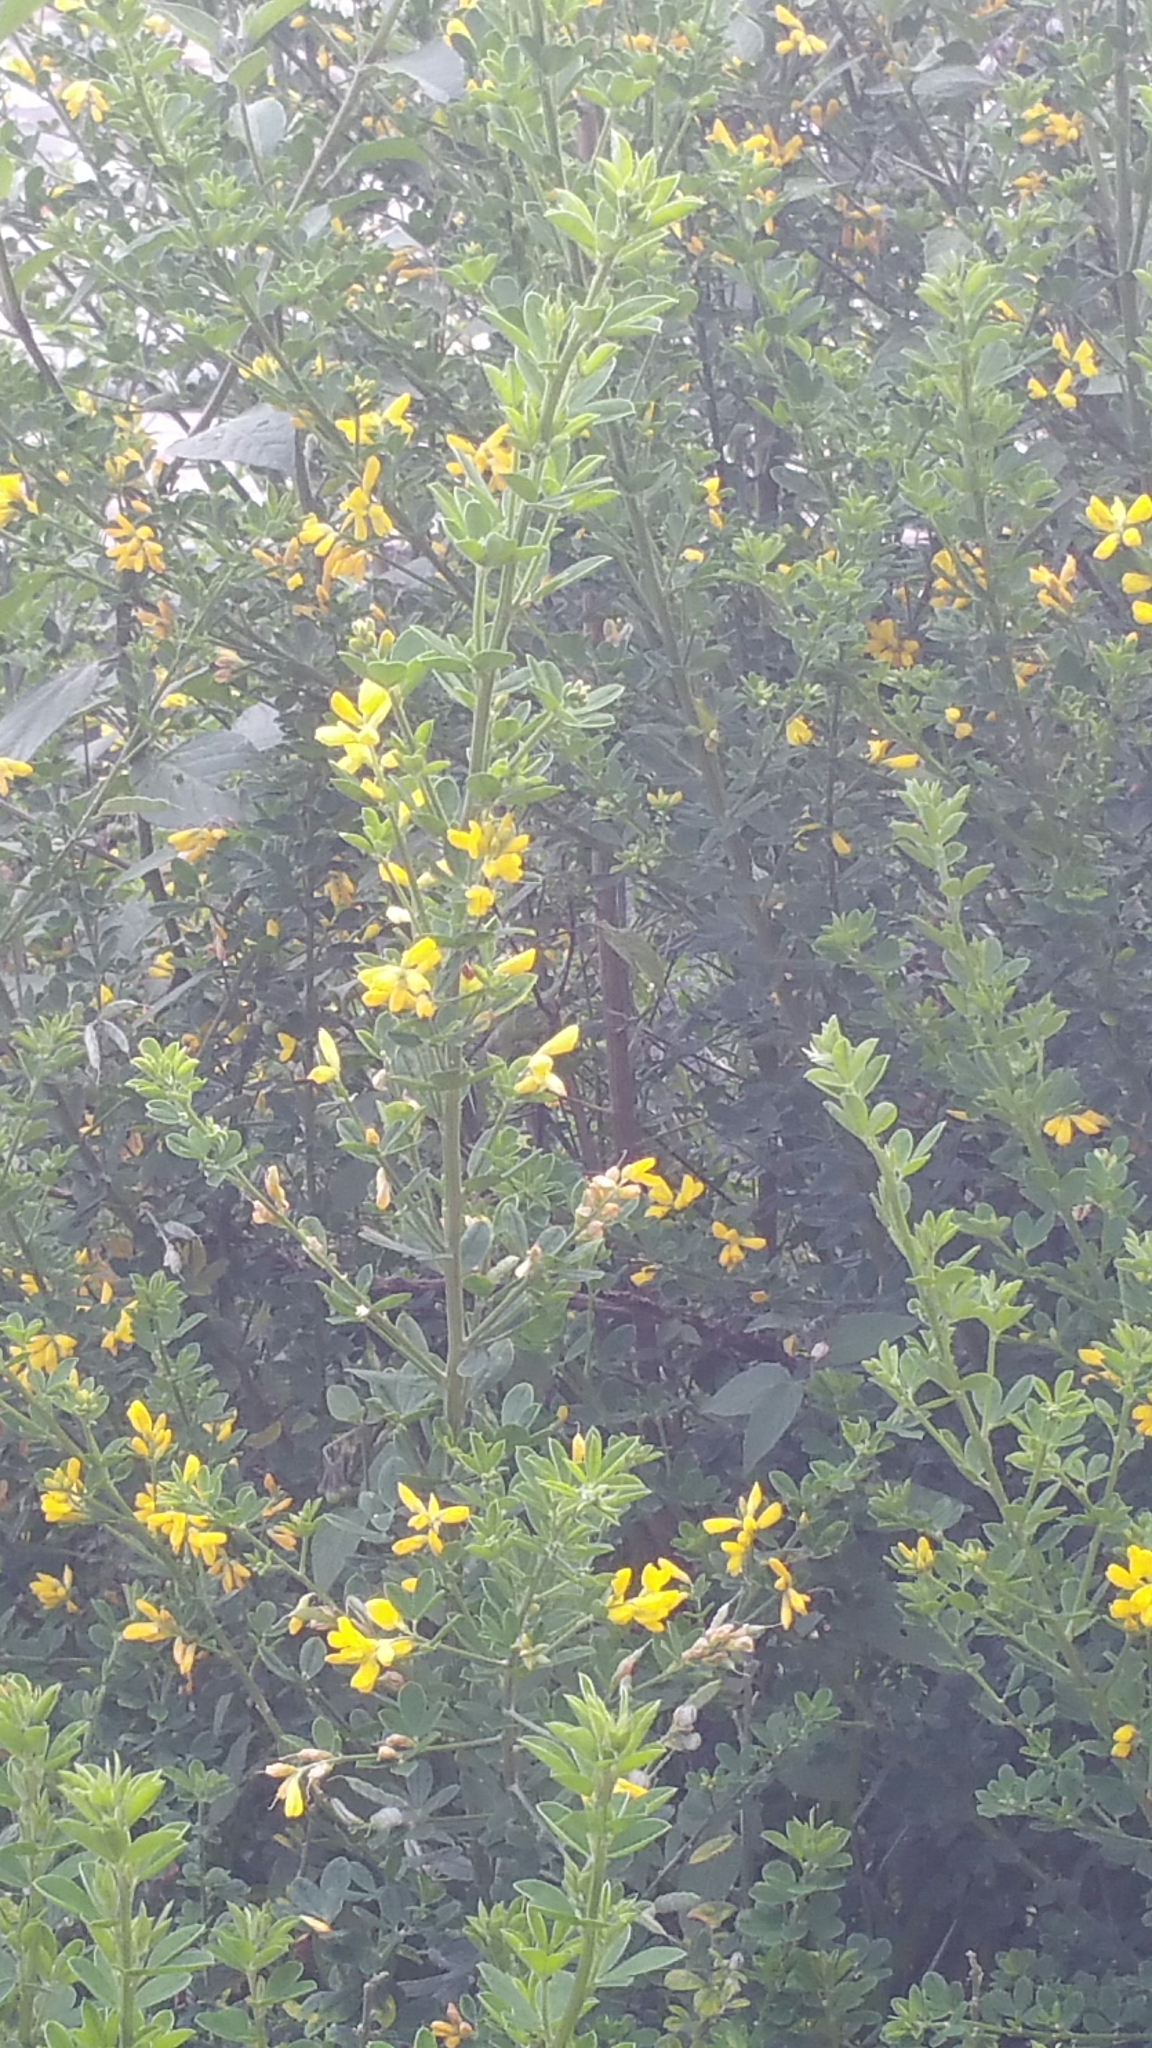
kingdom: Plantae
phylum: Tracheophyta
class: Magnoliopsida
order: Fabales
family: Fabaceae
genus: Genista
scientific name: Genista monspessulana
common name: Montpellier broom
